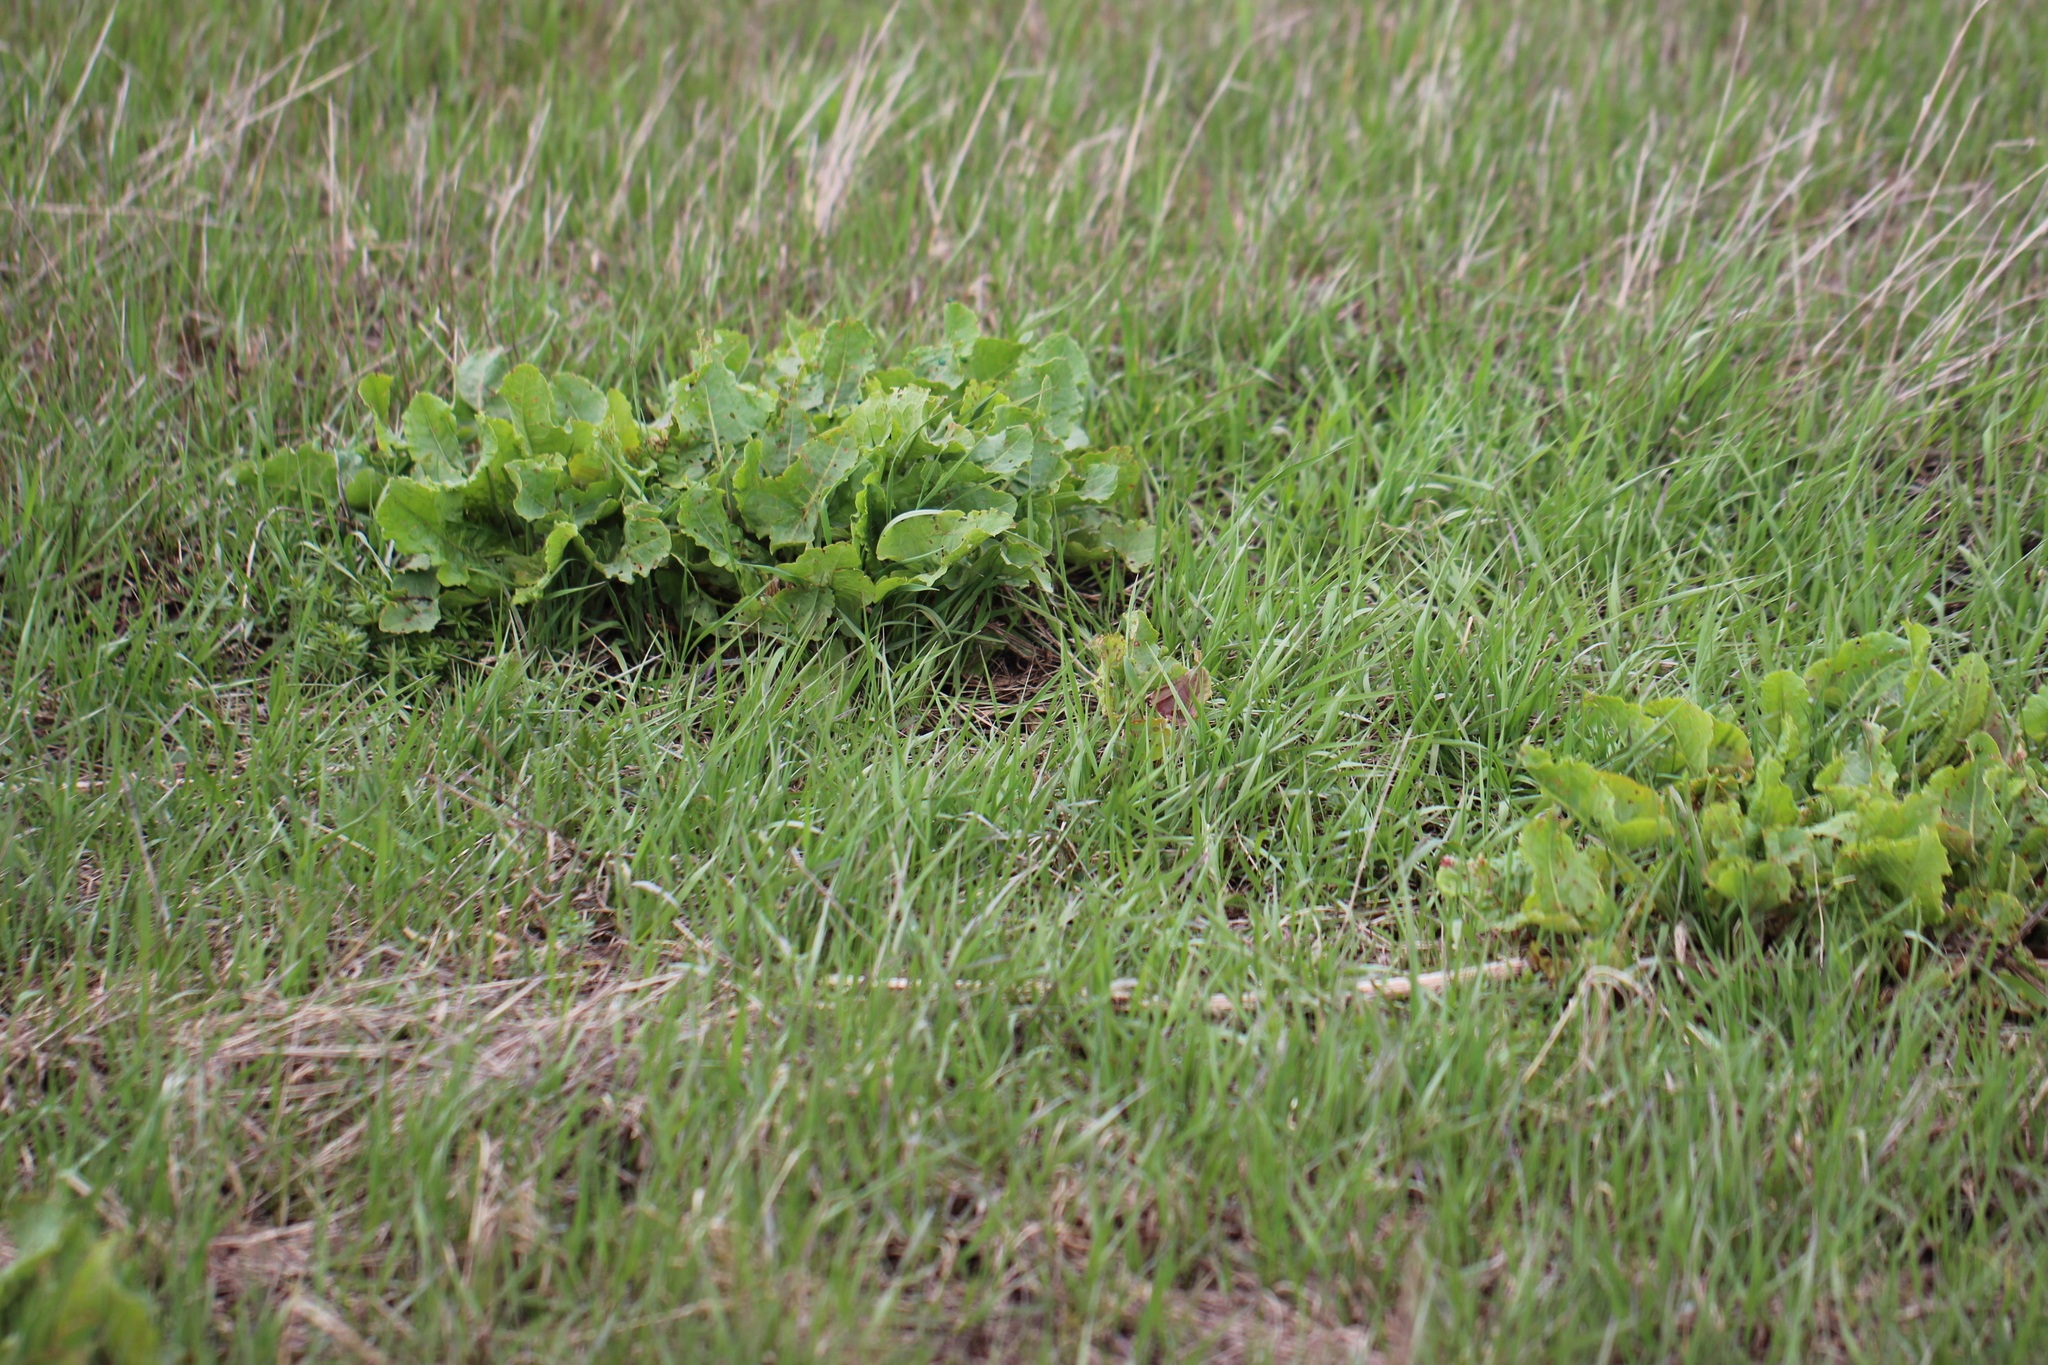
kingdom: Plantae
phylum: Tracheophyta
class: Magnoliopsida
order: Caryophyllales
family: Polygonaceae
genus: Rumex
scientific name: Rumex confertus
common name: Russian dock
